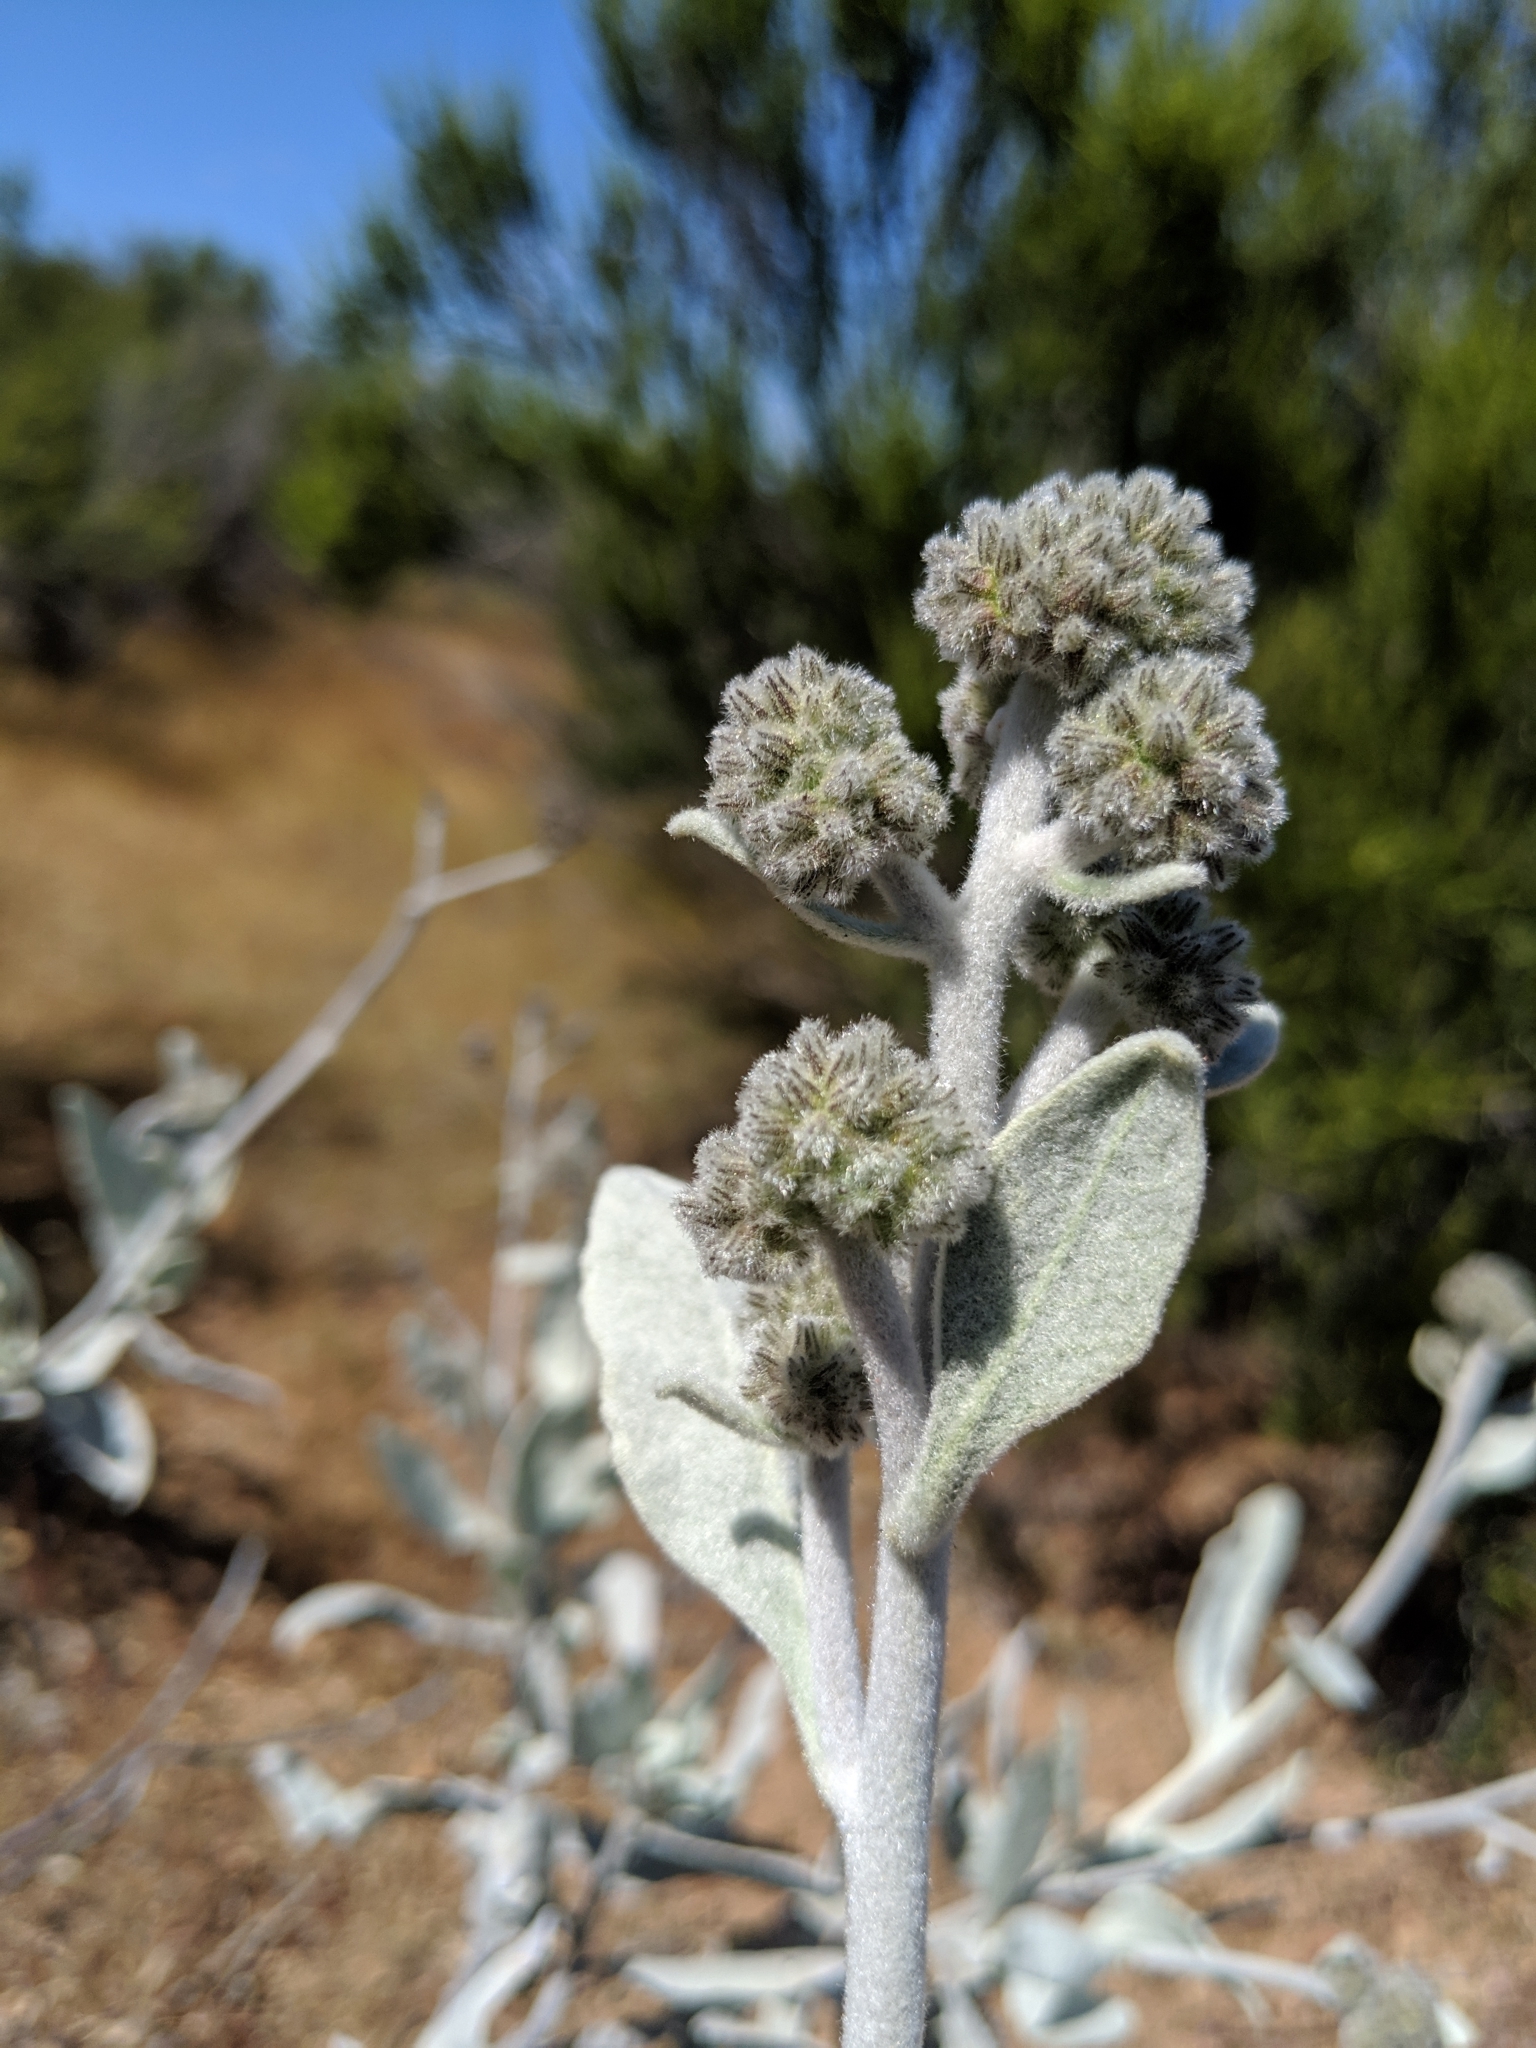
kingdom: Plantae
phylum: Tracheophyta
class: Magnoliopsida
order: Boraginales
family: Namaceae
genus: Eriodictyon
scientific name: Eriodictyon tomentosum
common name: Woolly yerba-santa
